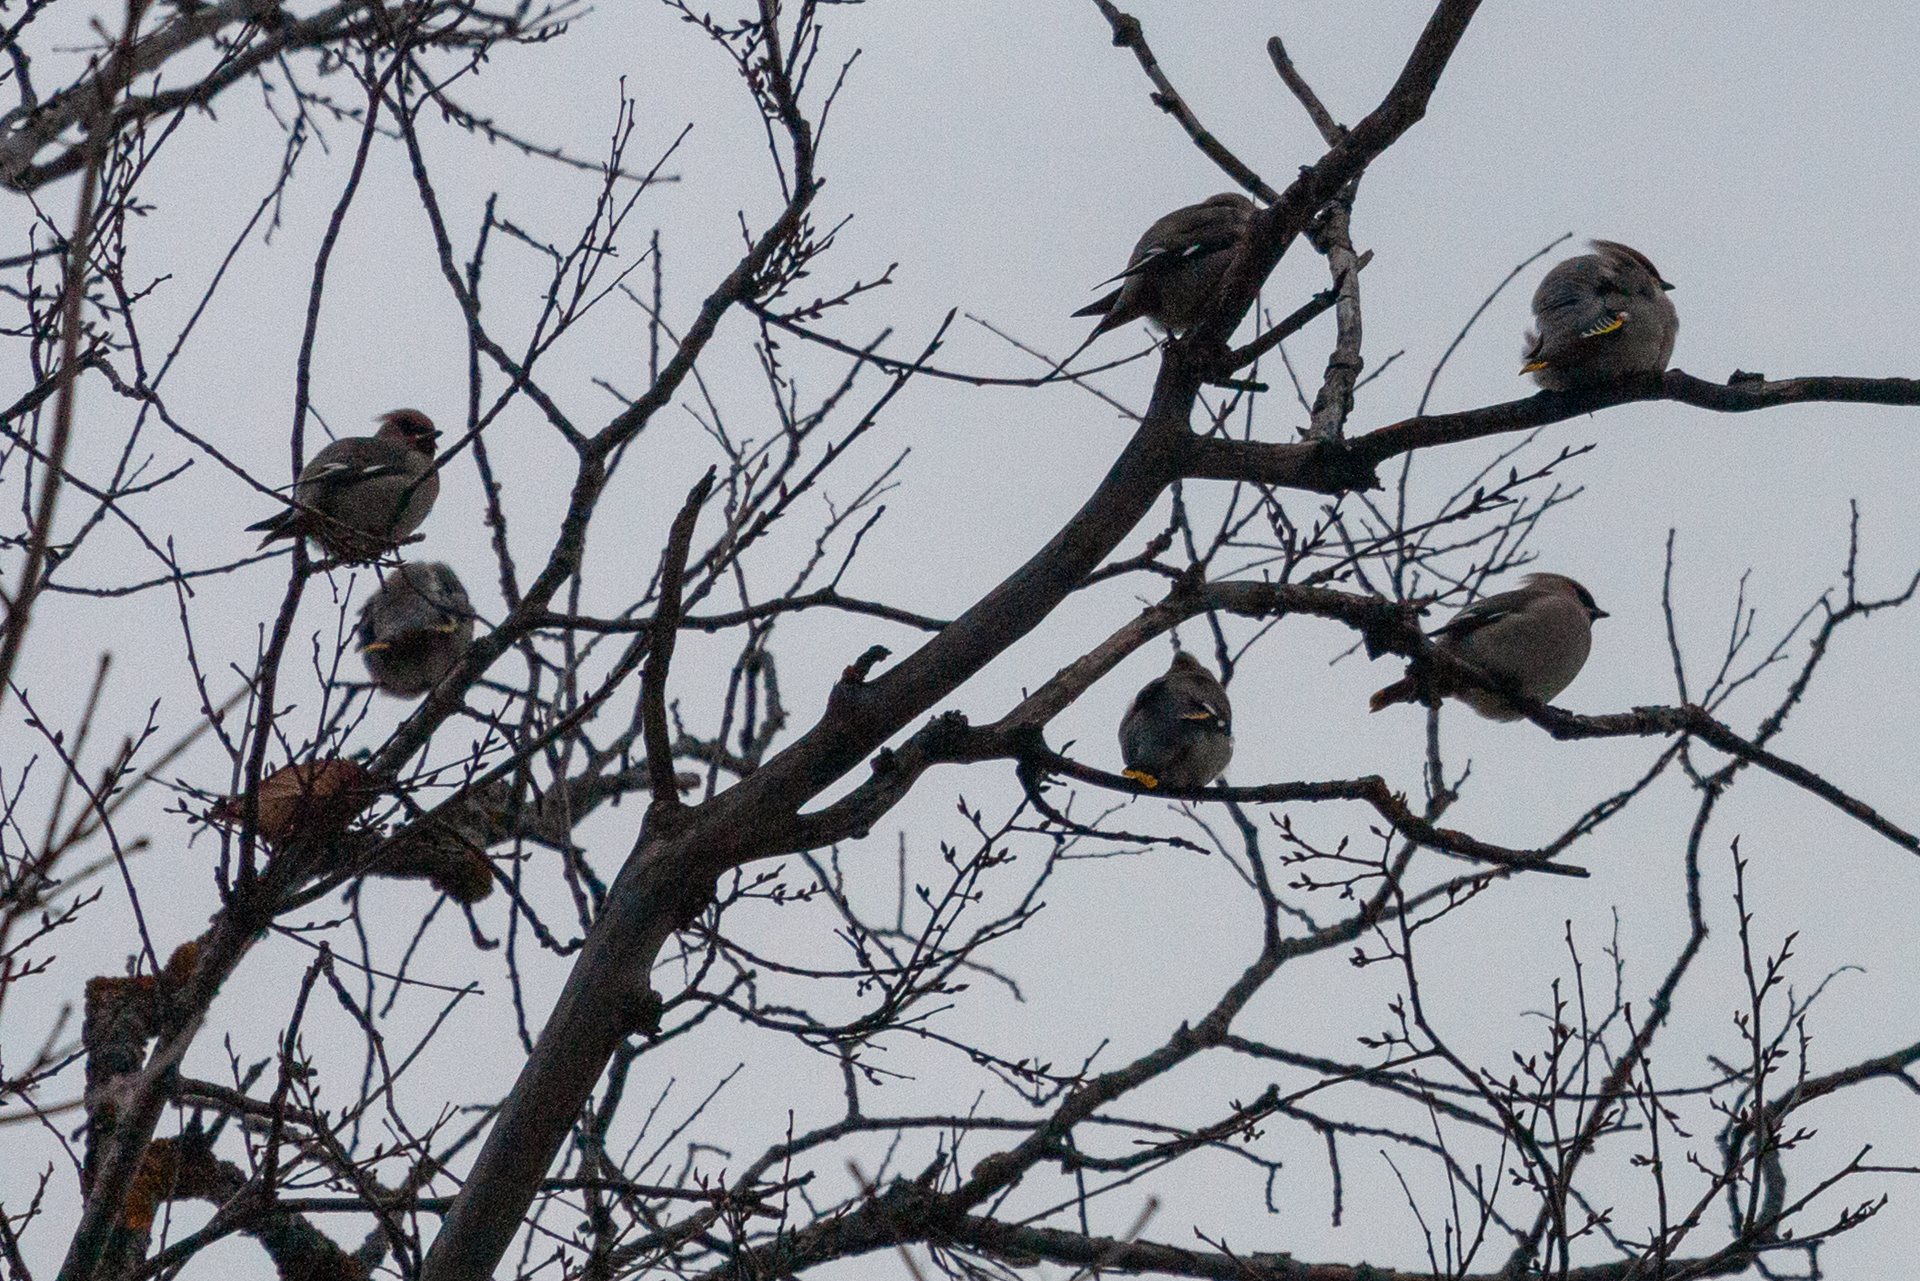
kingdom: Animalia
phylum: Chordata
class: Aves
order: Passeriformes
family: Bombycillidae
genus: Bombycilla
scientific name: Bombycilla garrulus
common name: Bohemian waxwing
